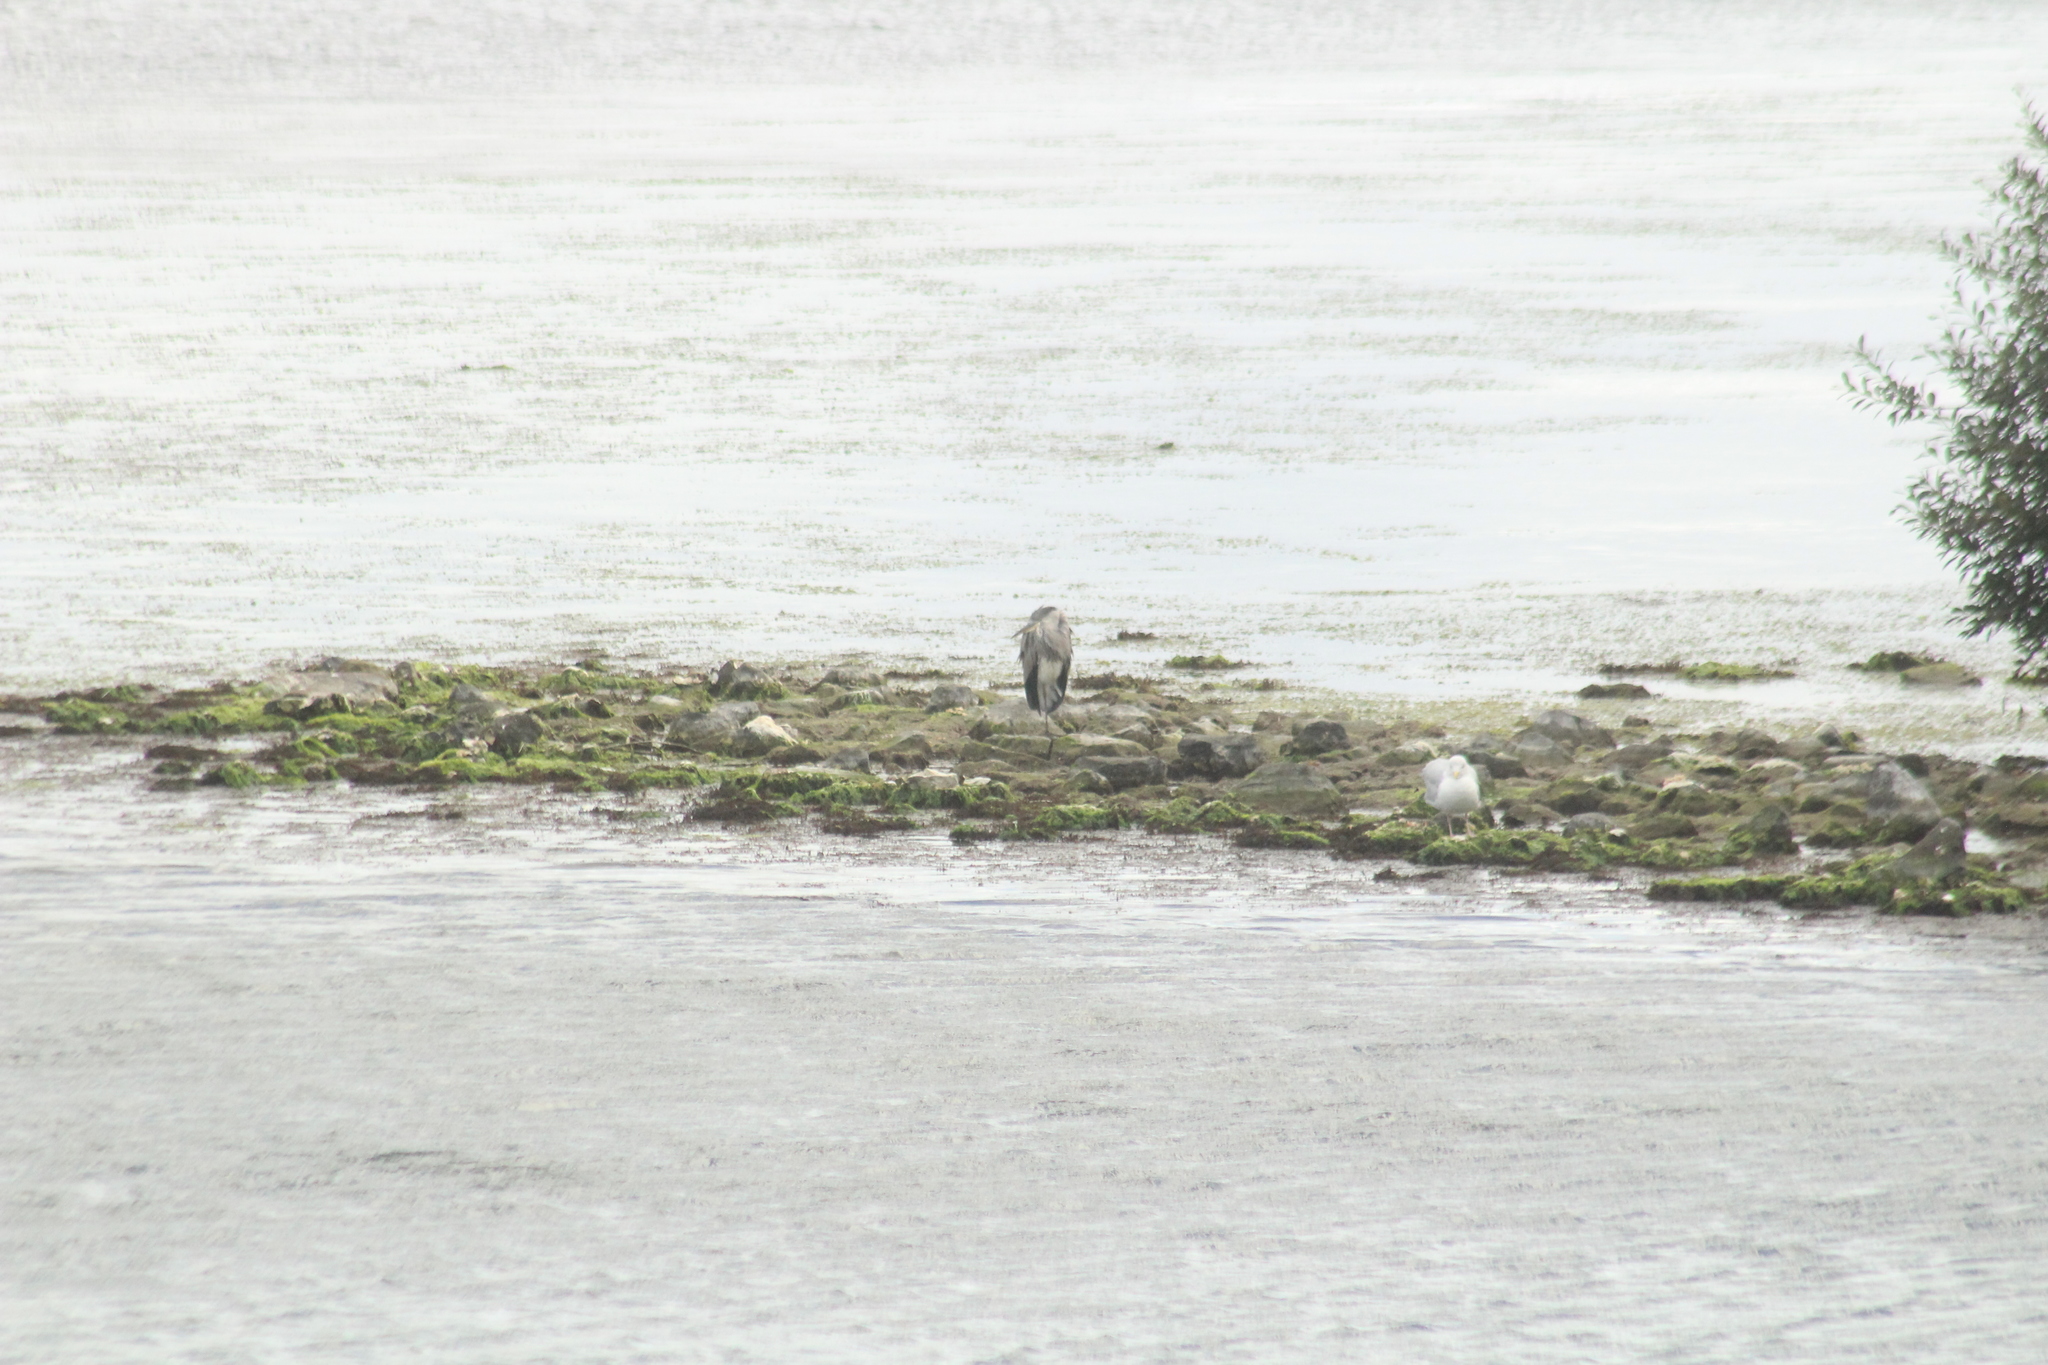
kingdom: Animalia
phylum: Chordata
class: Aves
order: Pelecaniformes
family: Ardeidae
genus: Ardea
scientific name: Ardea cinerea
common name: Grey heron
